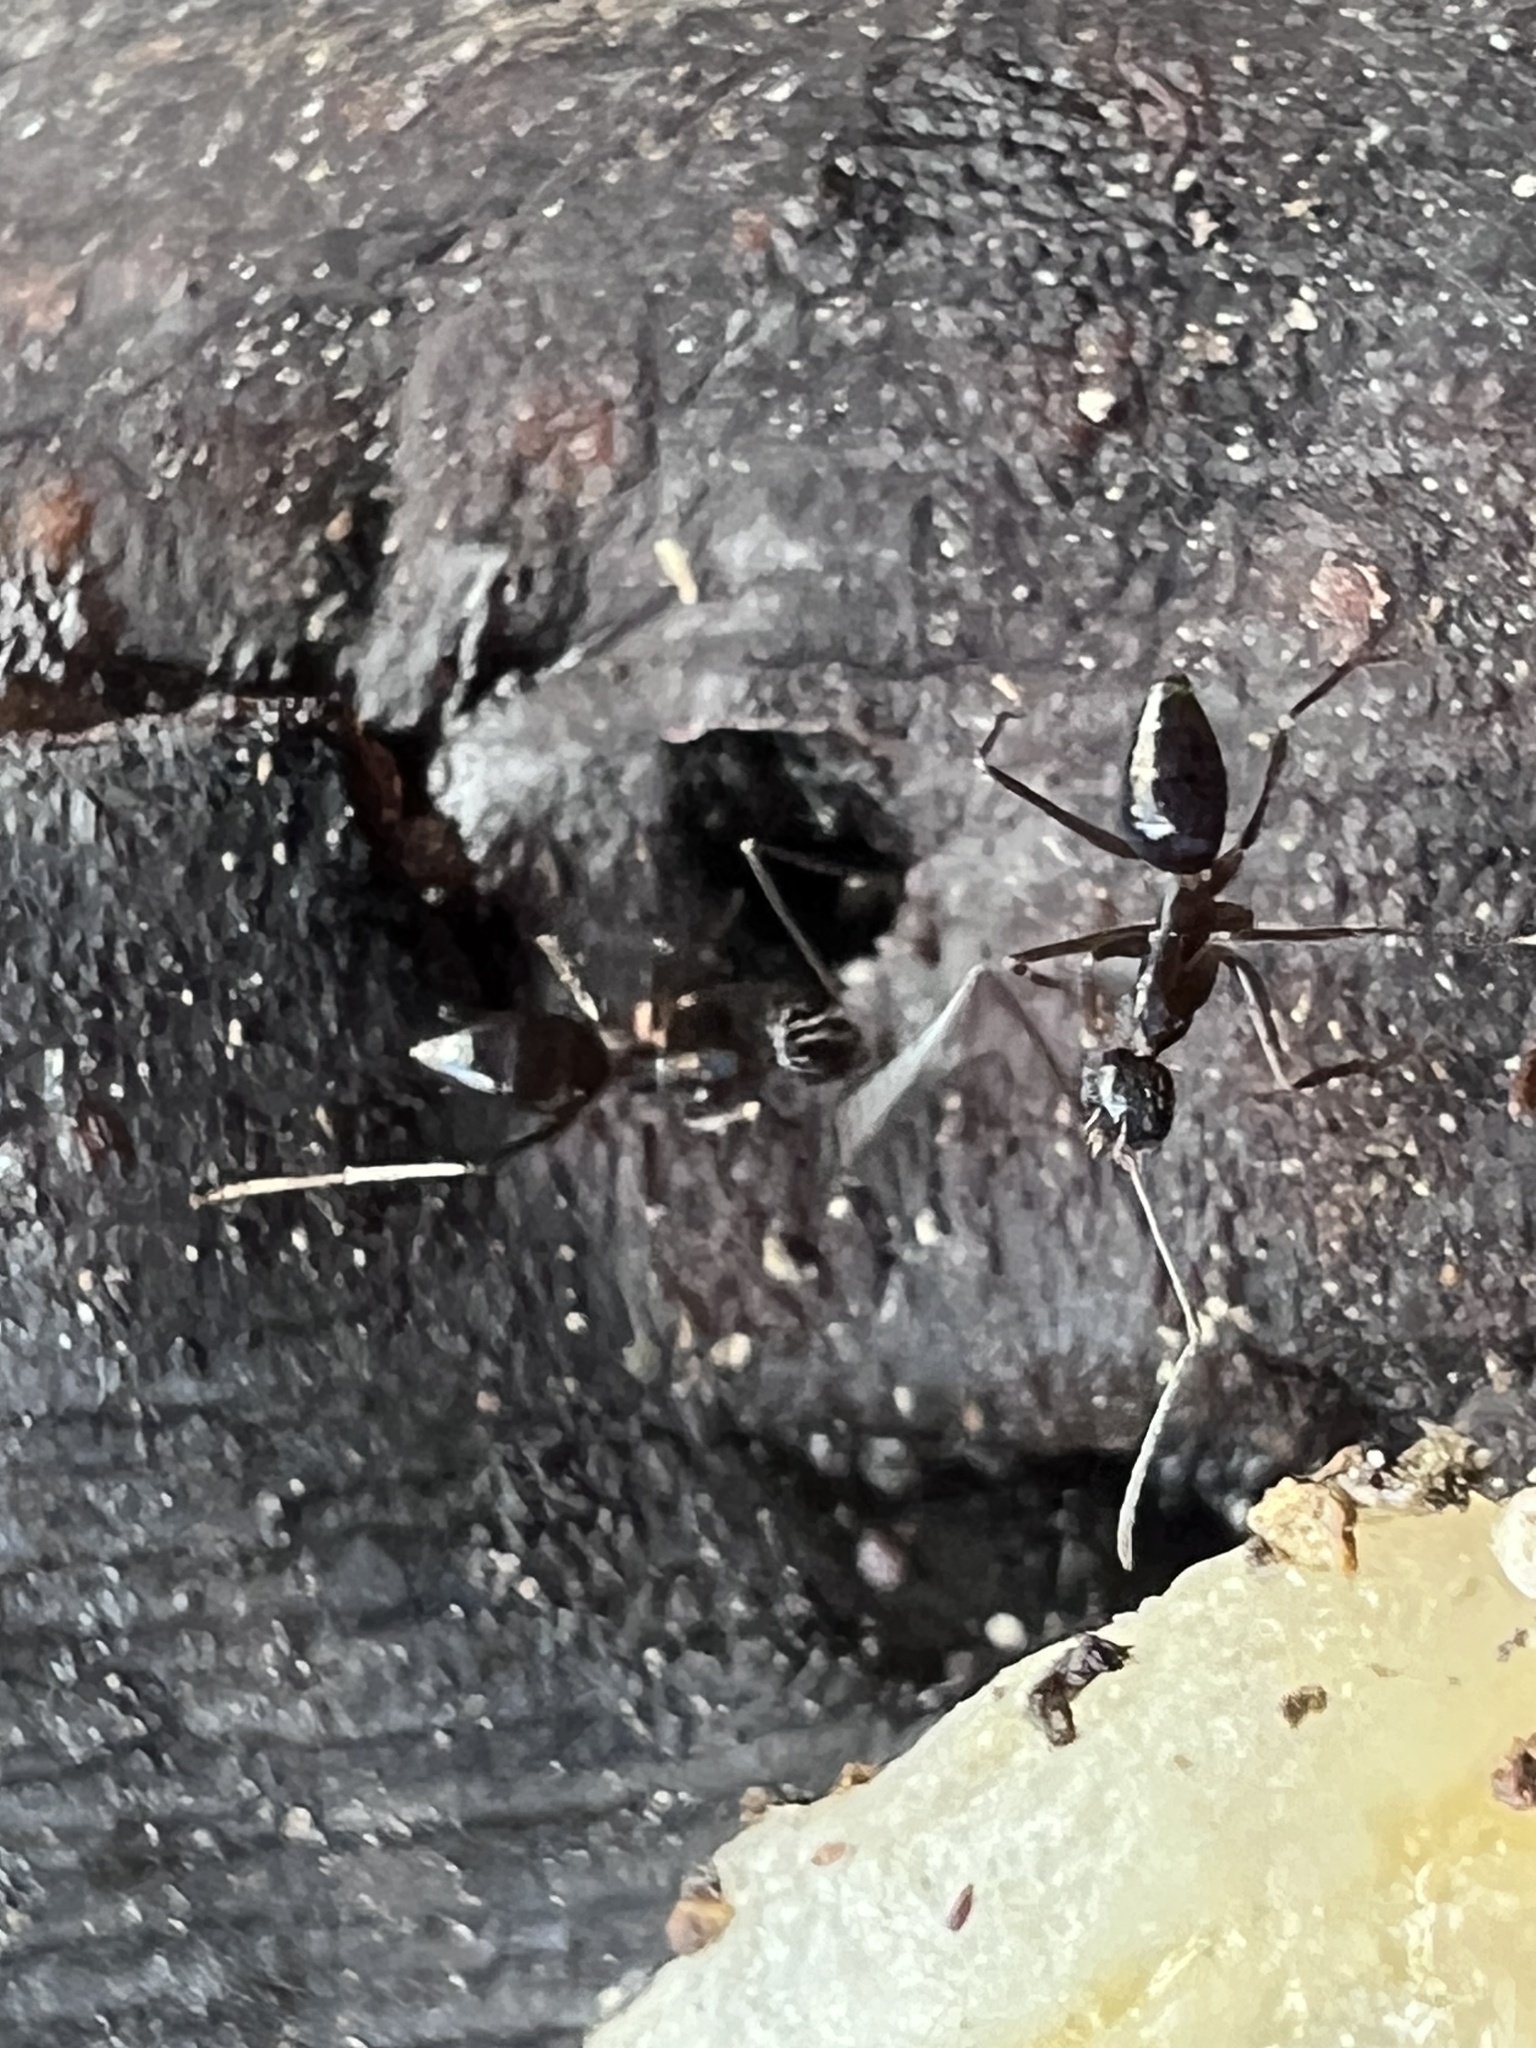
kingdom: Animalia
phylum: Arthropoda
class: Insecta
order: Hymenoptera
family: Formicidae
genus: Paratrechina
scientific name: Paratrechina longicornis
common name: Longhorned crazy ant
